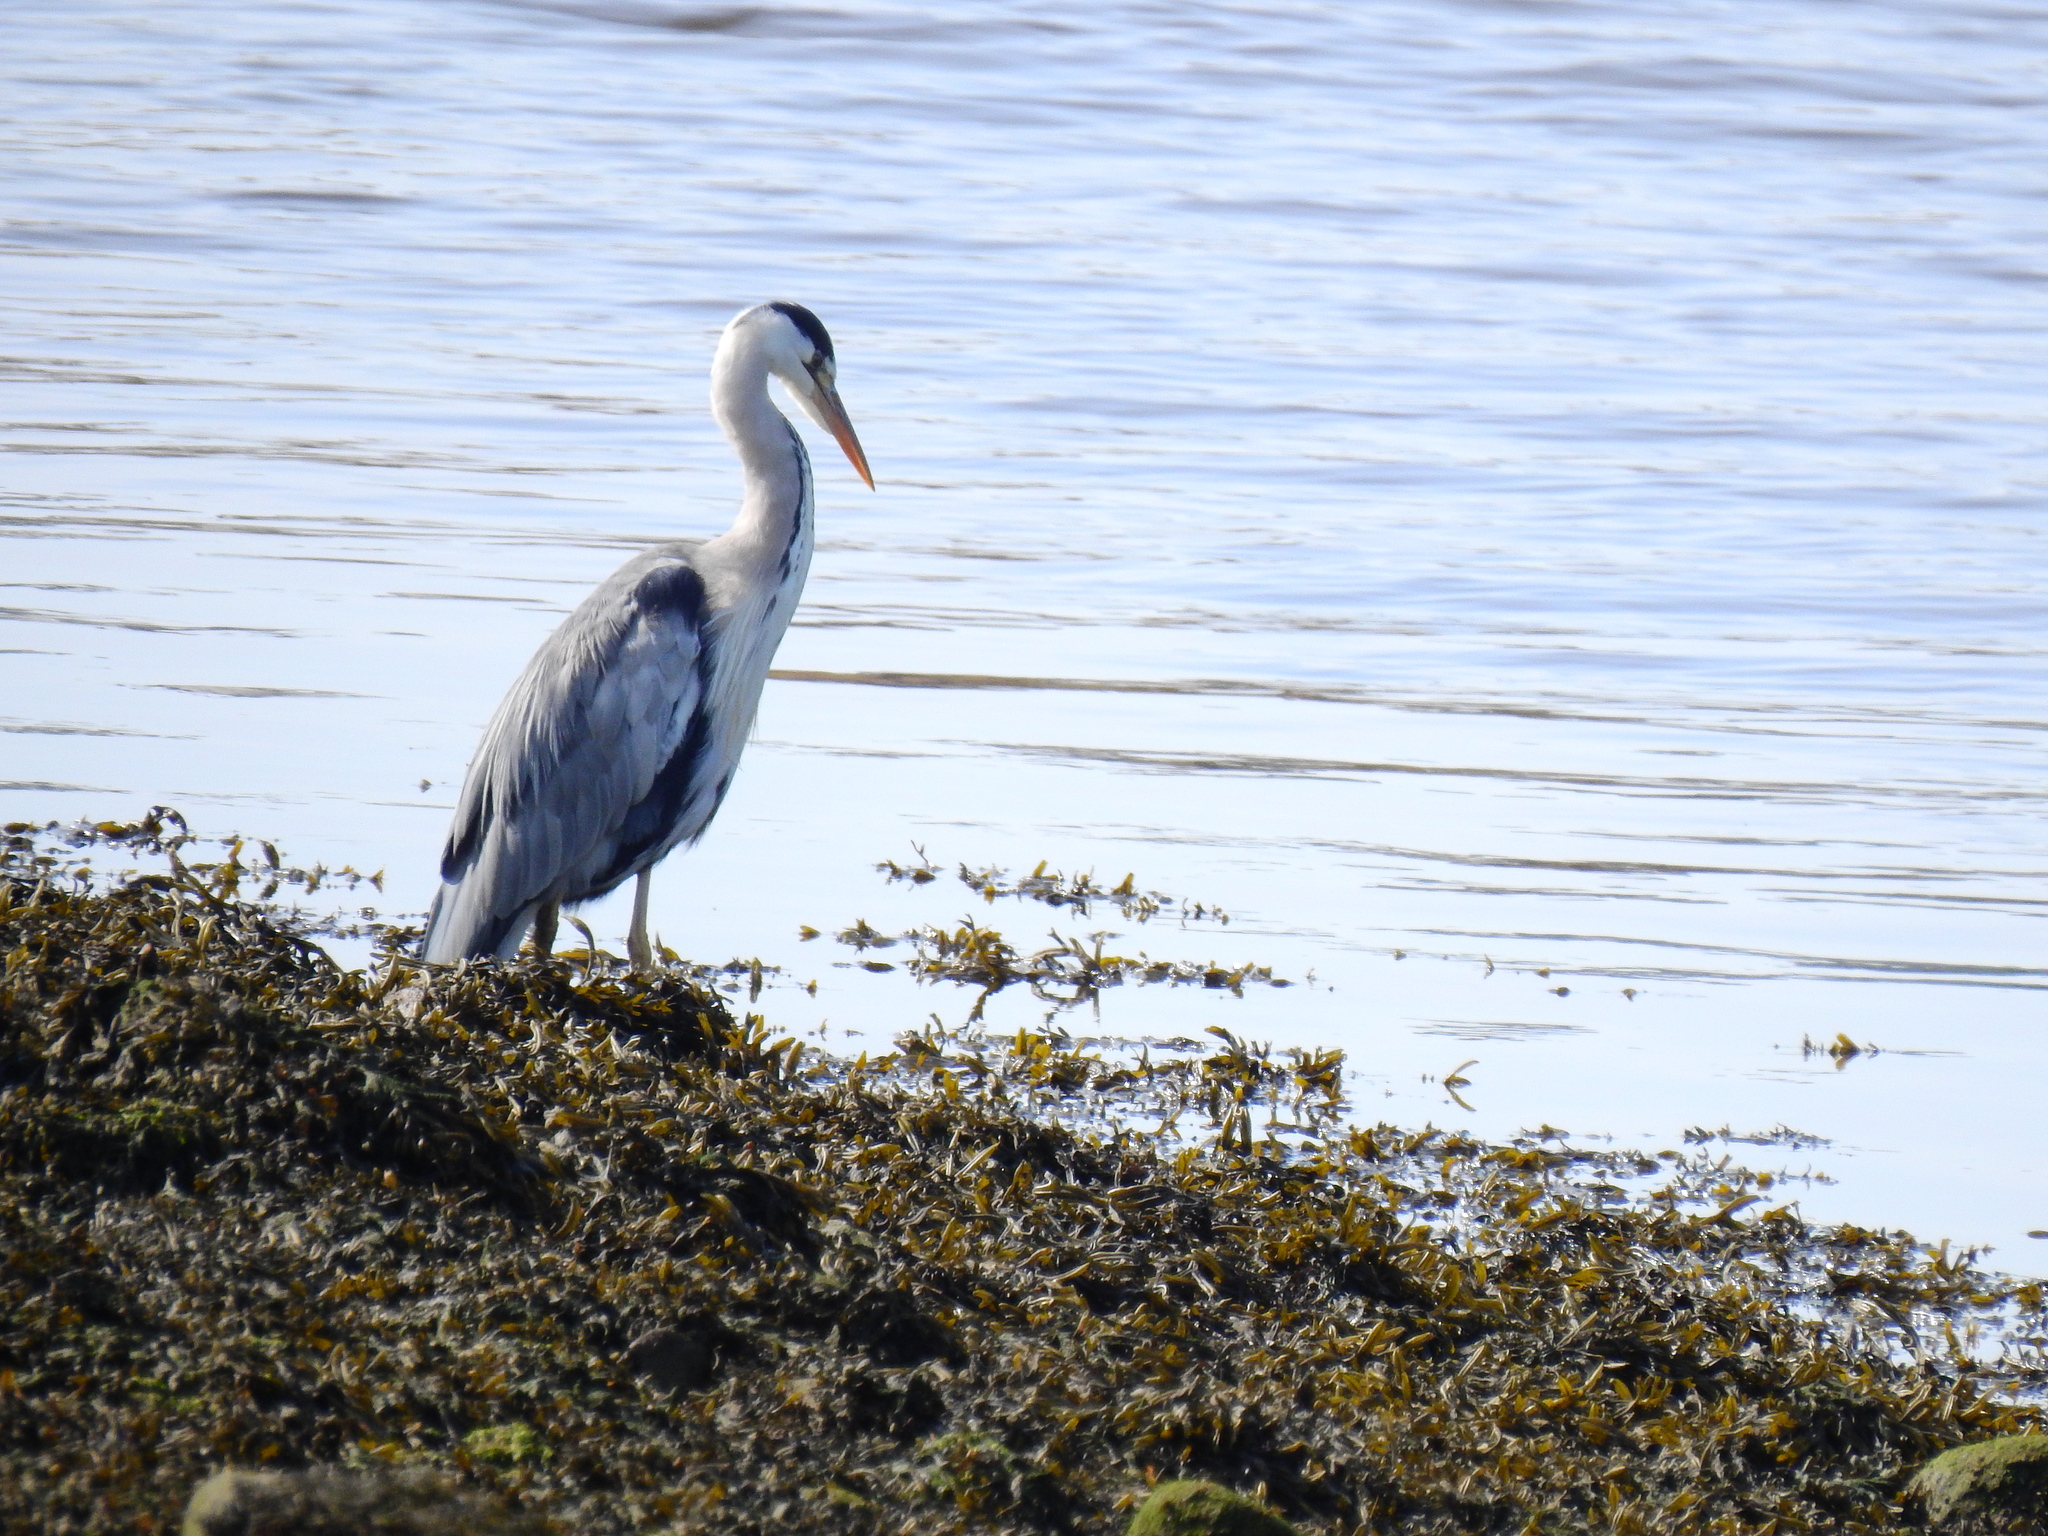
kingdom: Animalia
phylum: Chordata
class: Aves
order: Pelecaniformes
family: Ardeidae
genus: Ardea
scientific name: Ardea cinerea
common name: Grey heron
